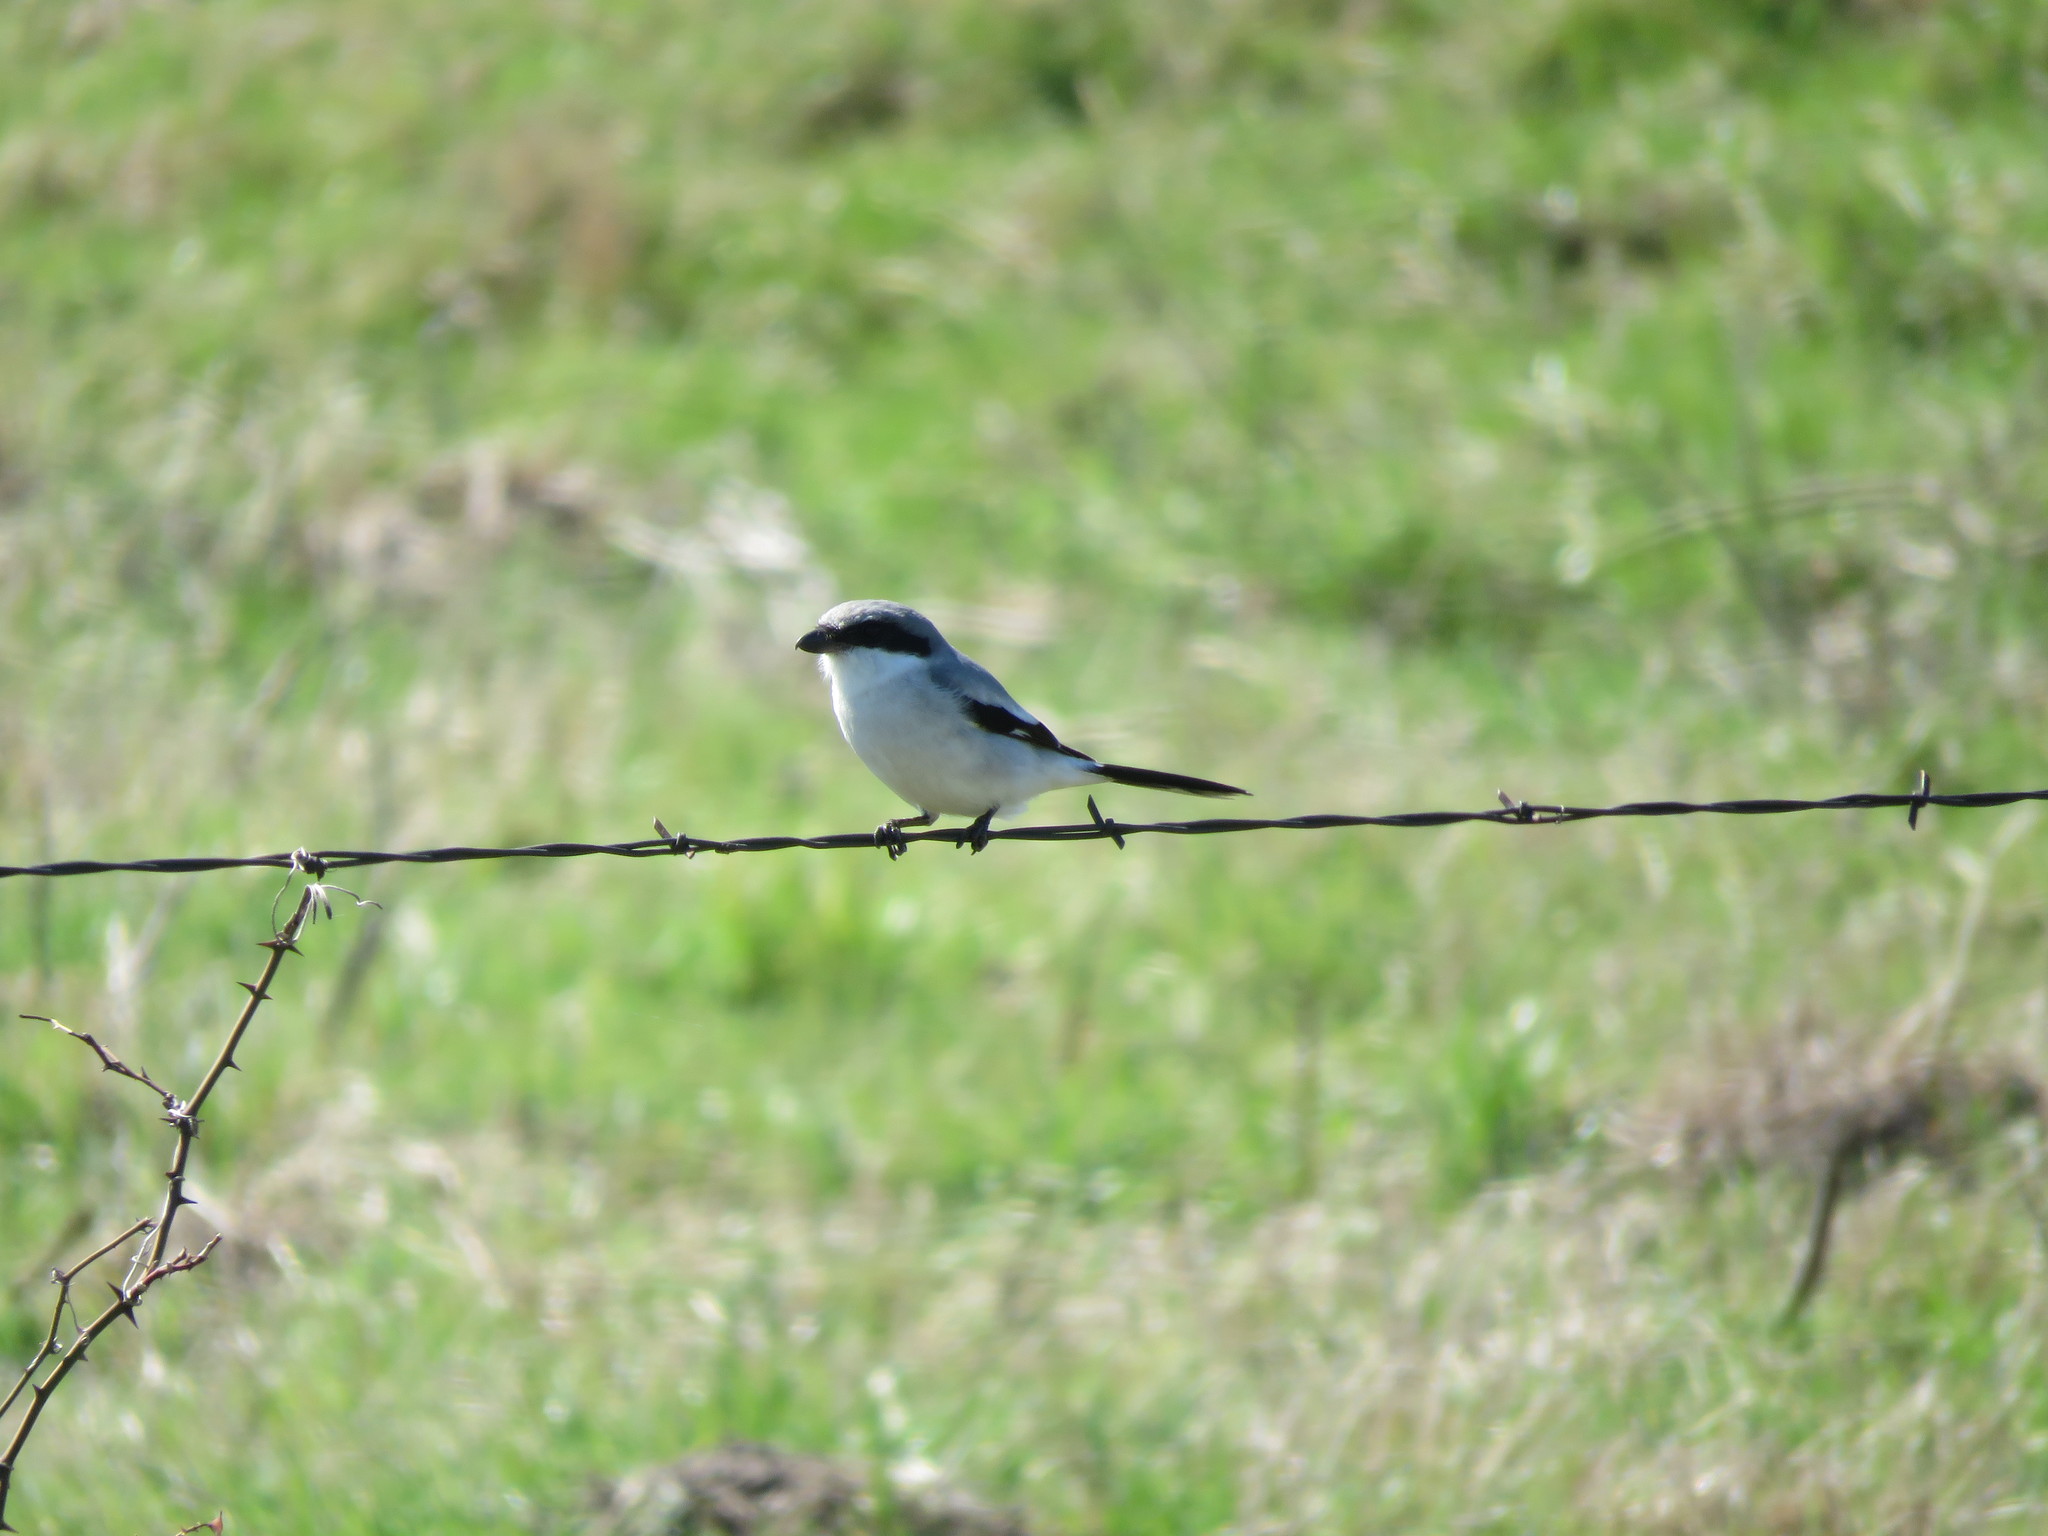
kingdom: Animalia
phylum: Chordata
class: Aves
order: Passeriformes
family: Laniidae
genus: Lanius
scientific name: Lanius ludovicianus
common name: Loggerhead shrike
